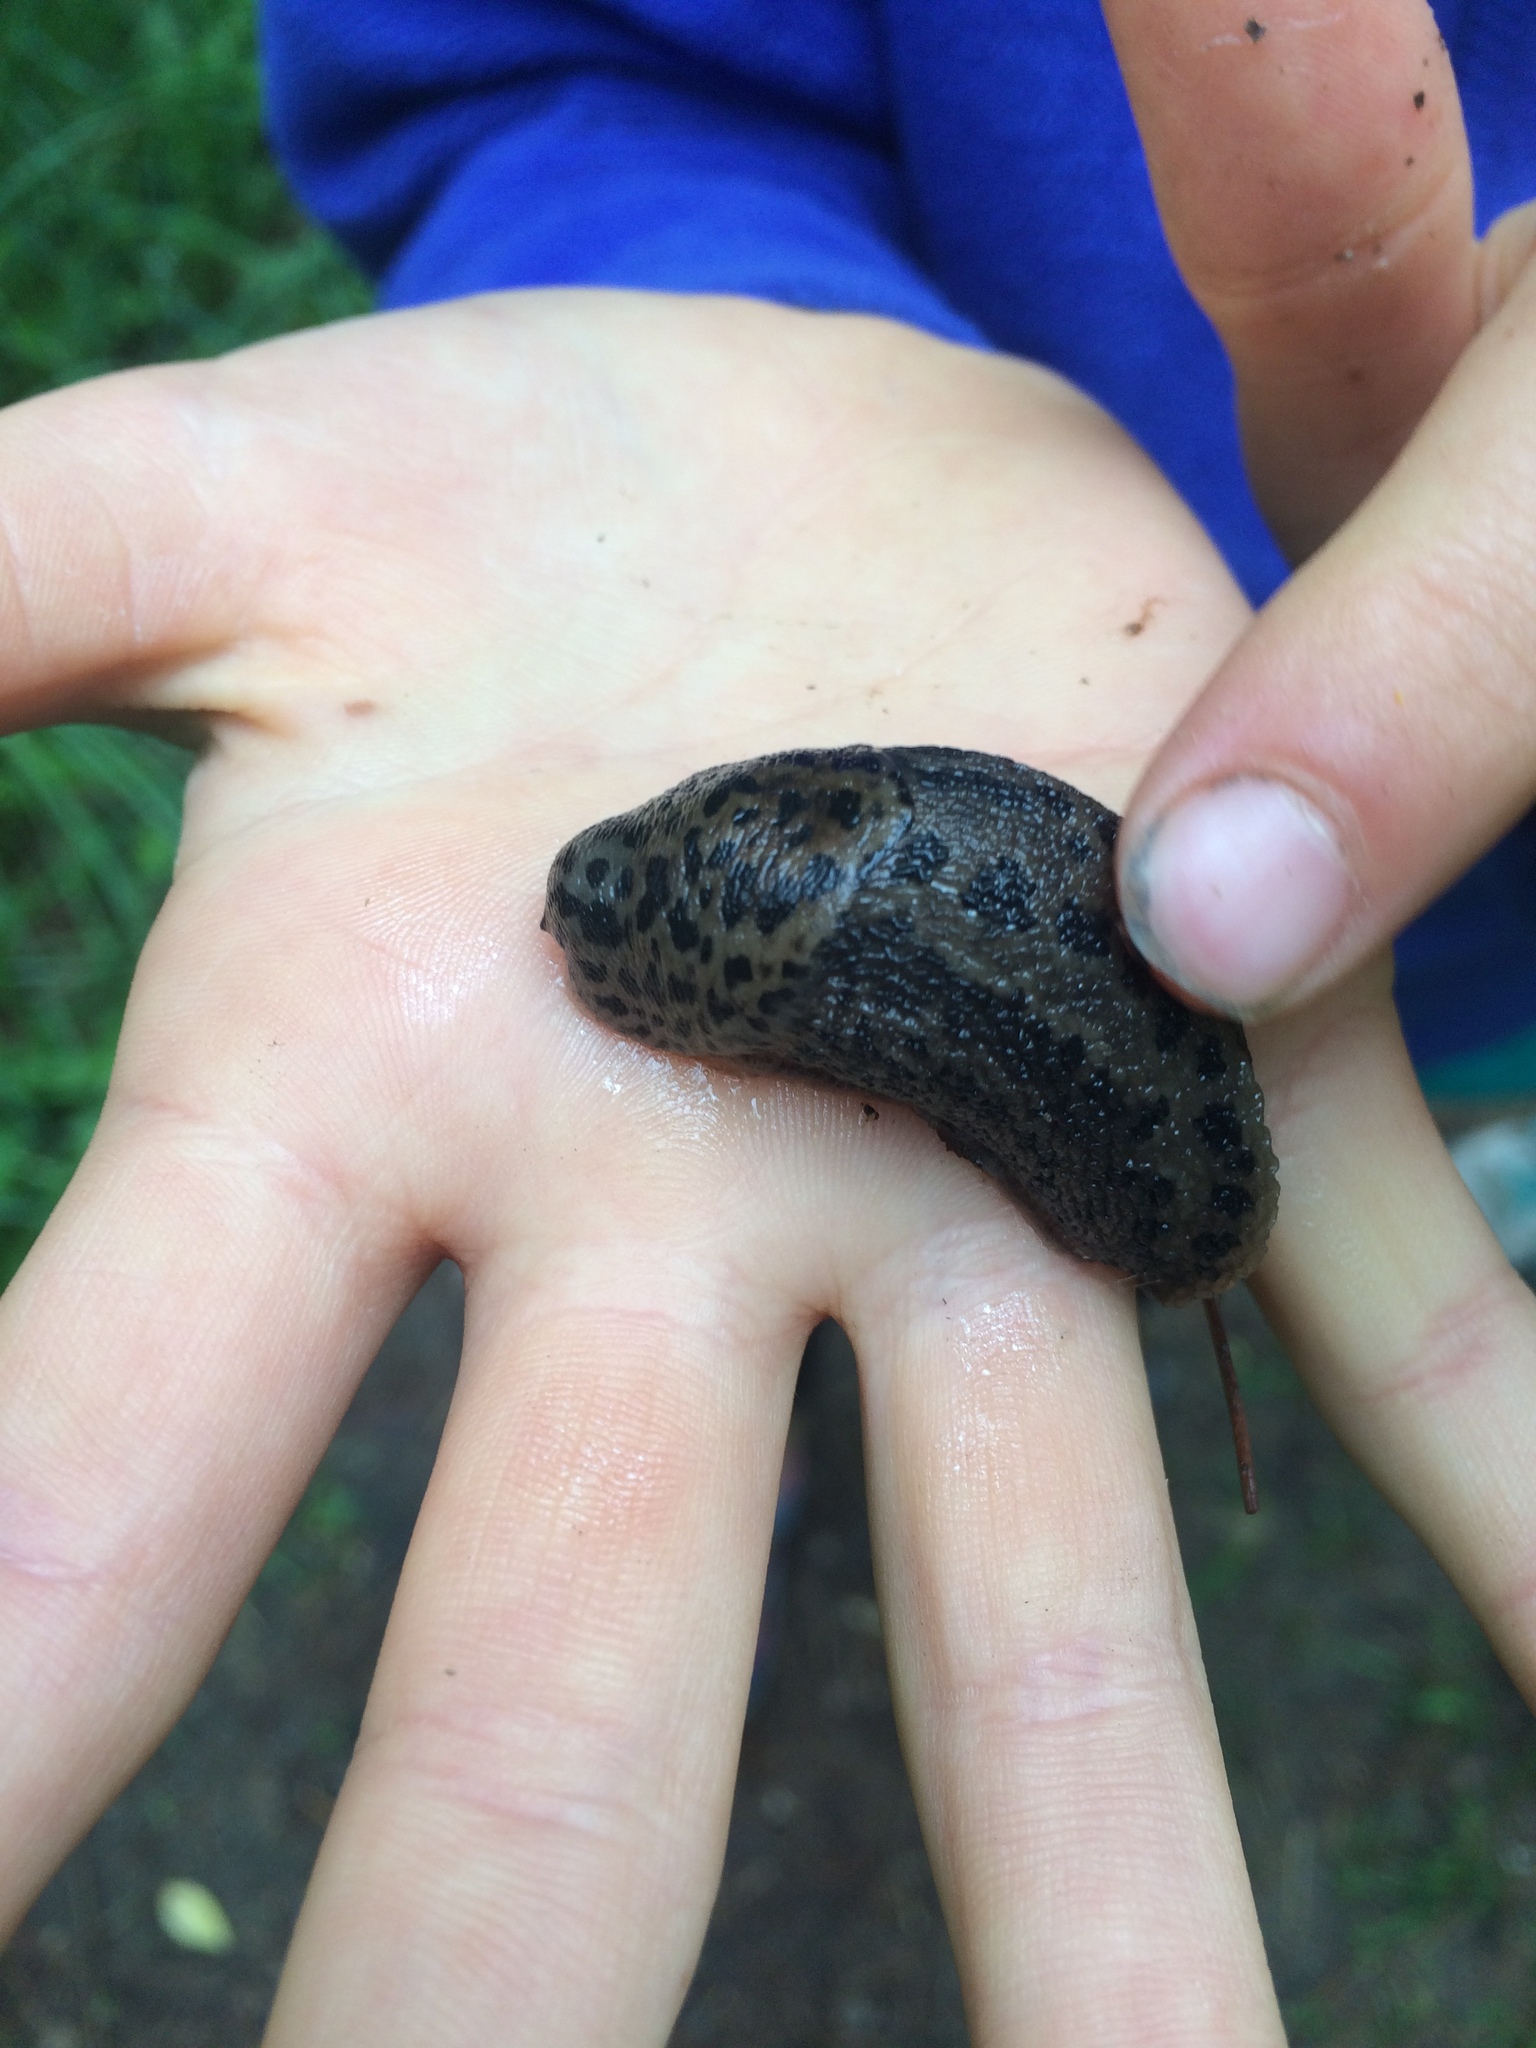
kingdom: Animalia
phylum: Mollusca
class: Gastropoda
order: Stylommatophora
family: Limacidae
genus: Limax
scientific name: Limax maximus
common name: Great grey slug
